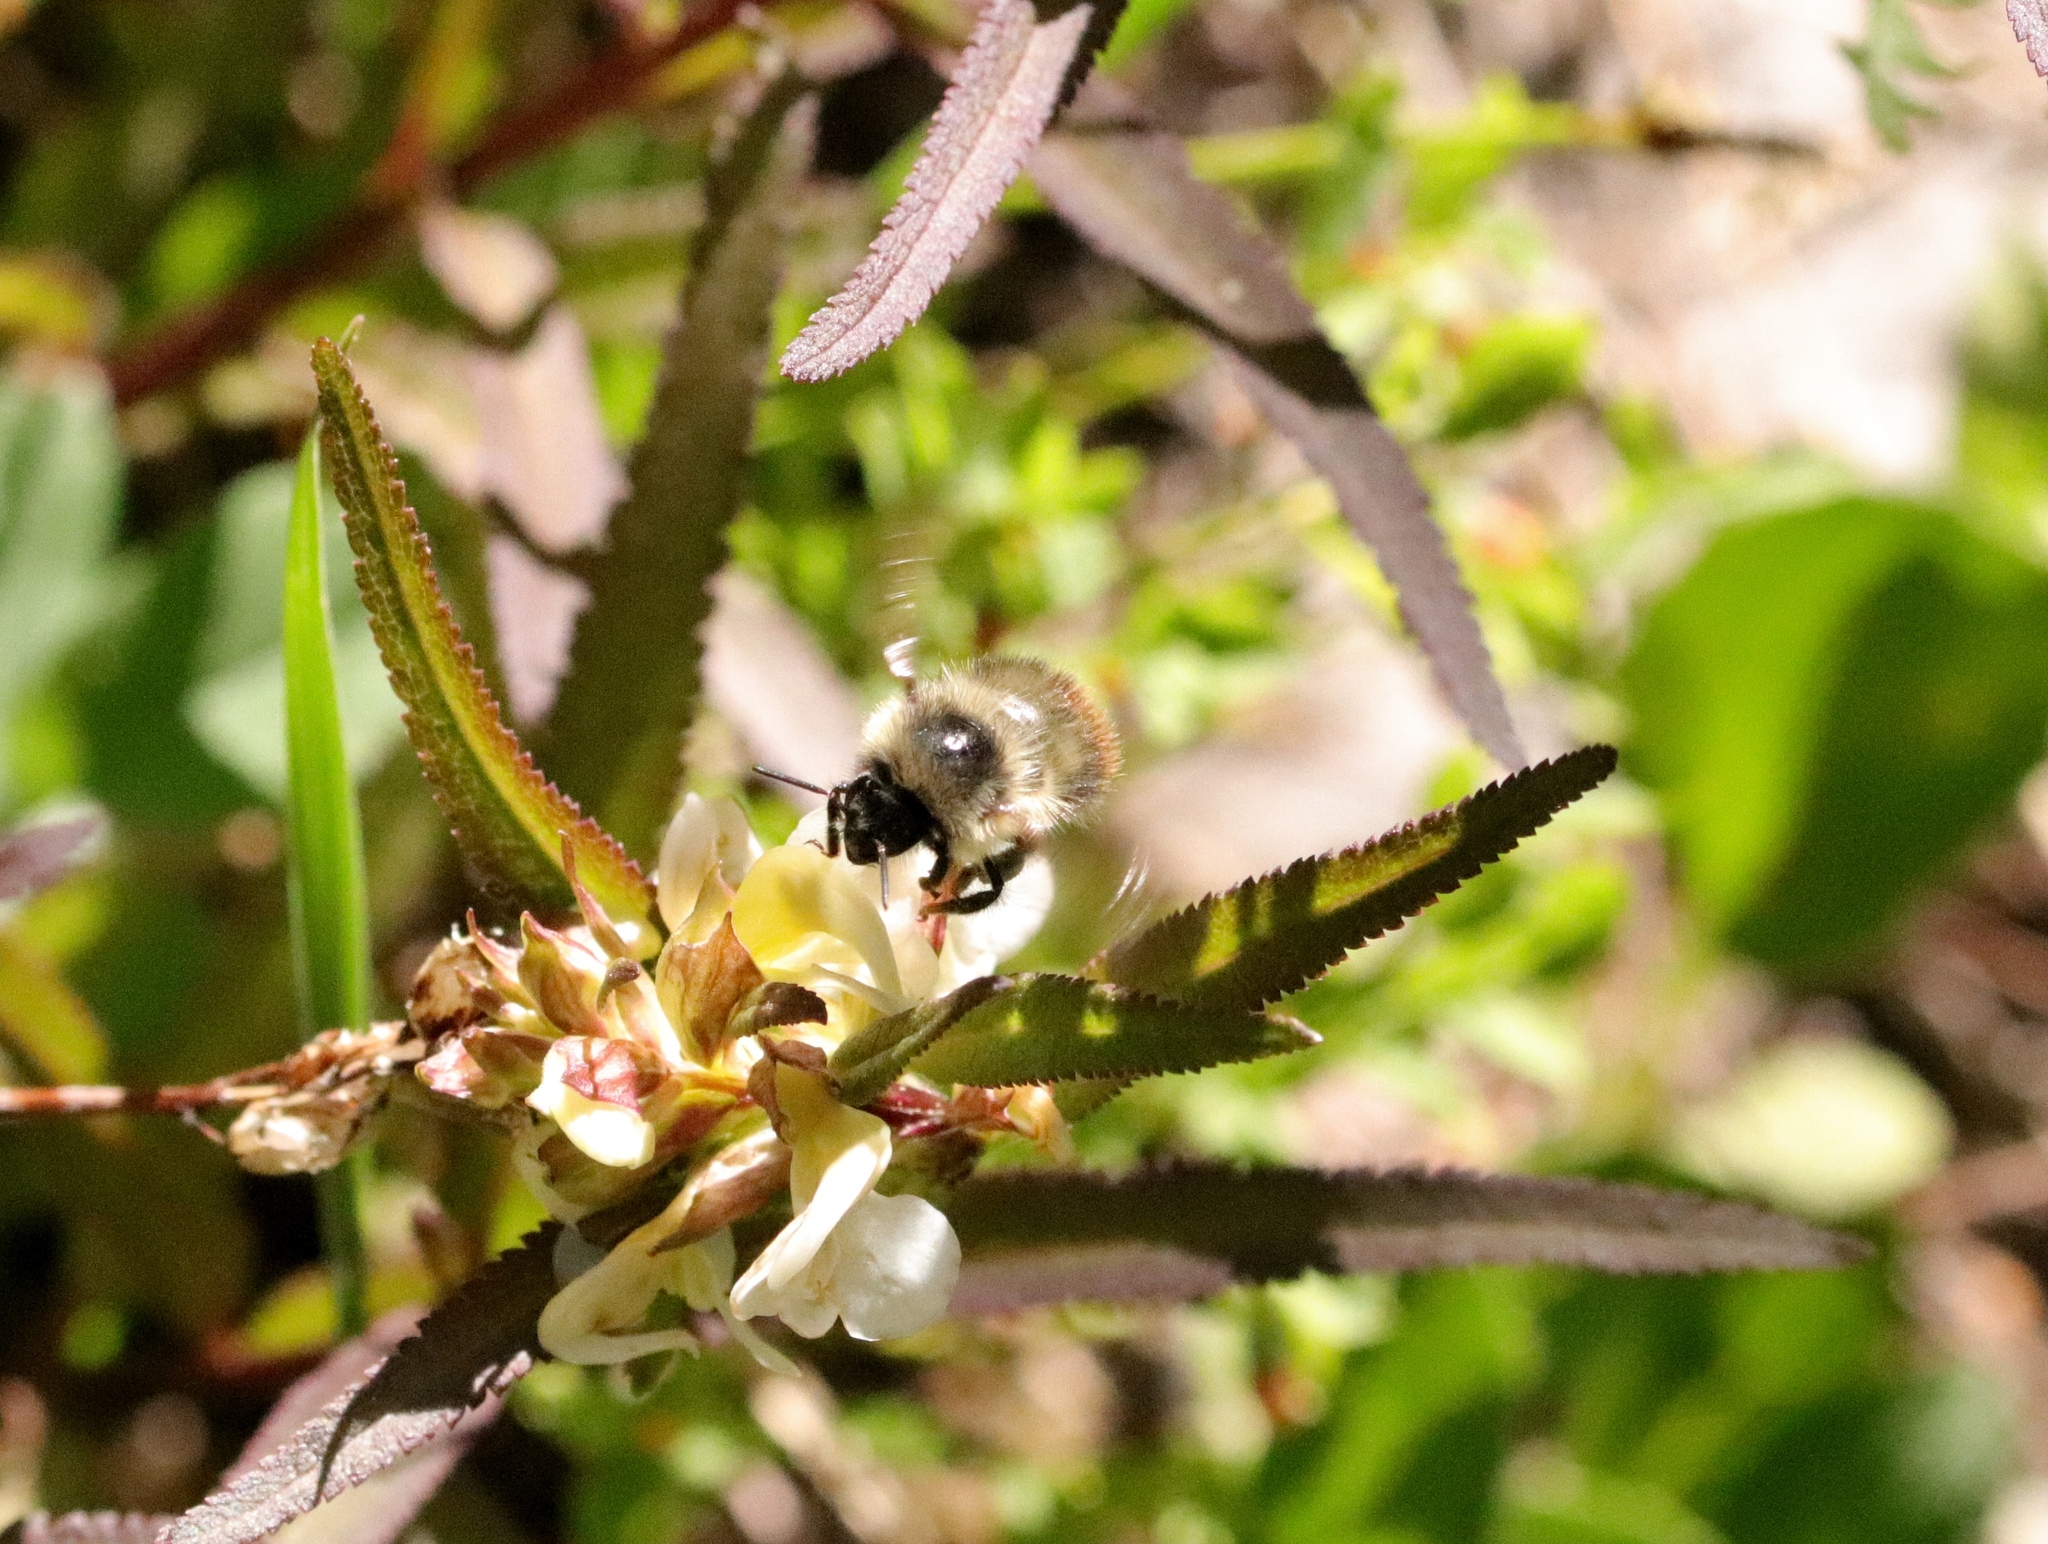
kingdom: Animalia
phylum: Arthropoda
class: Insecta
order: Hymenoptera
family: Apidae
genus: Bombus
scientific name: Bombus mixtus
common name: Fuzzy-horned bumble bee
